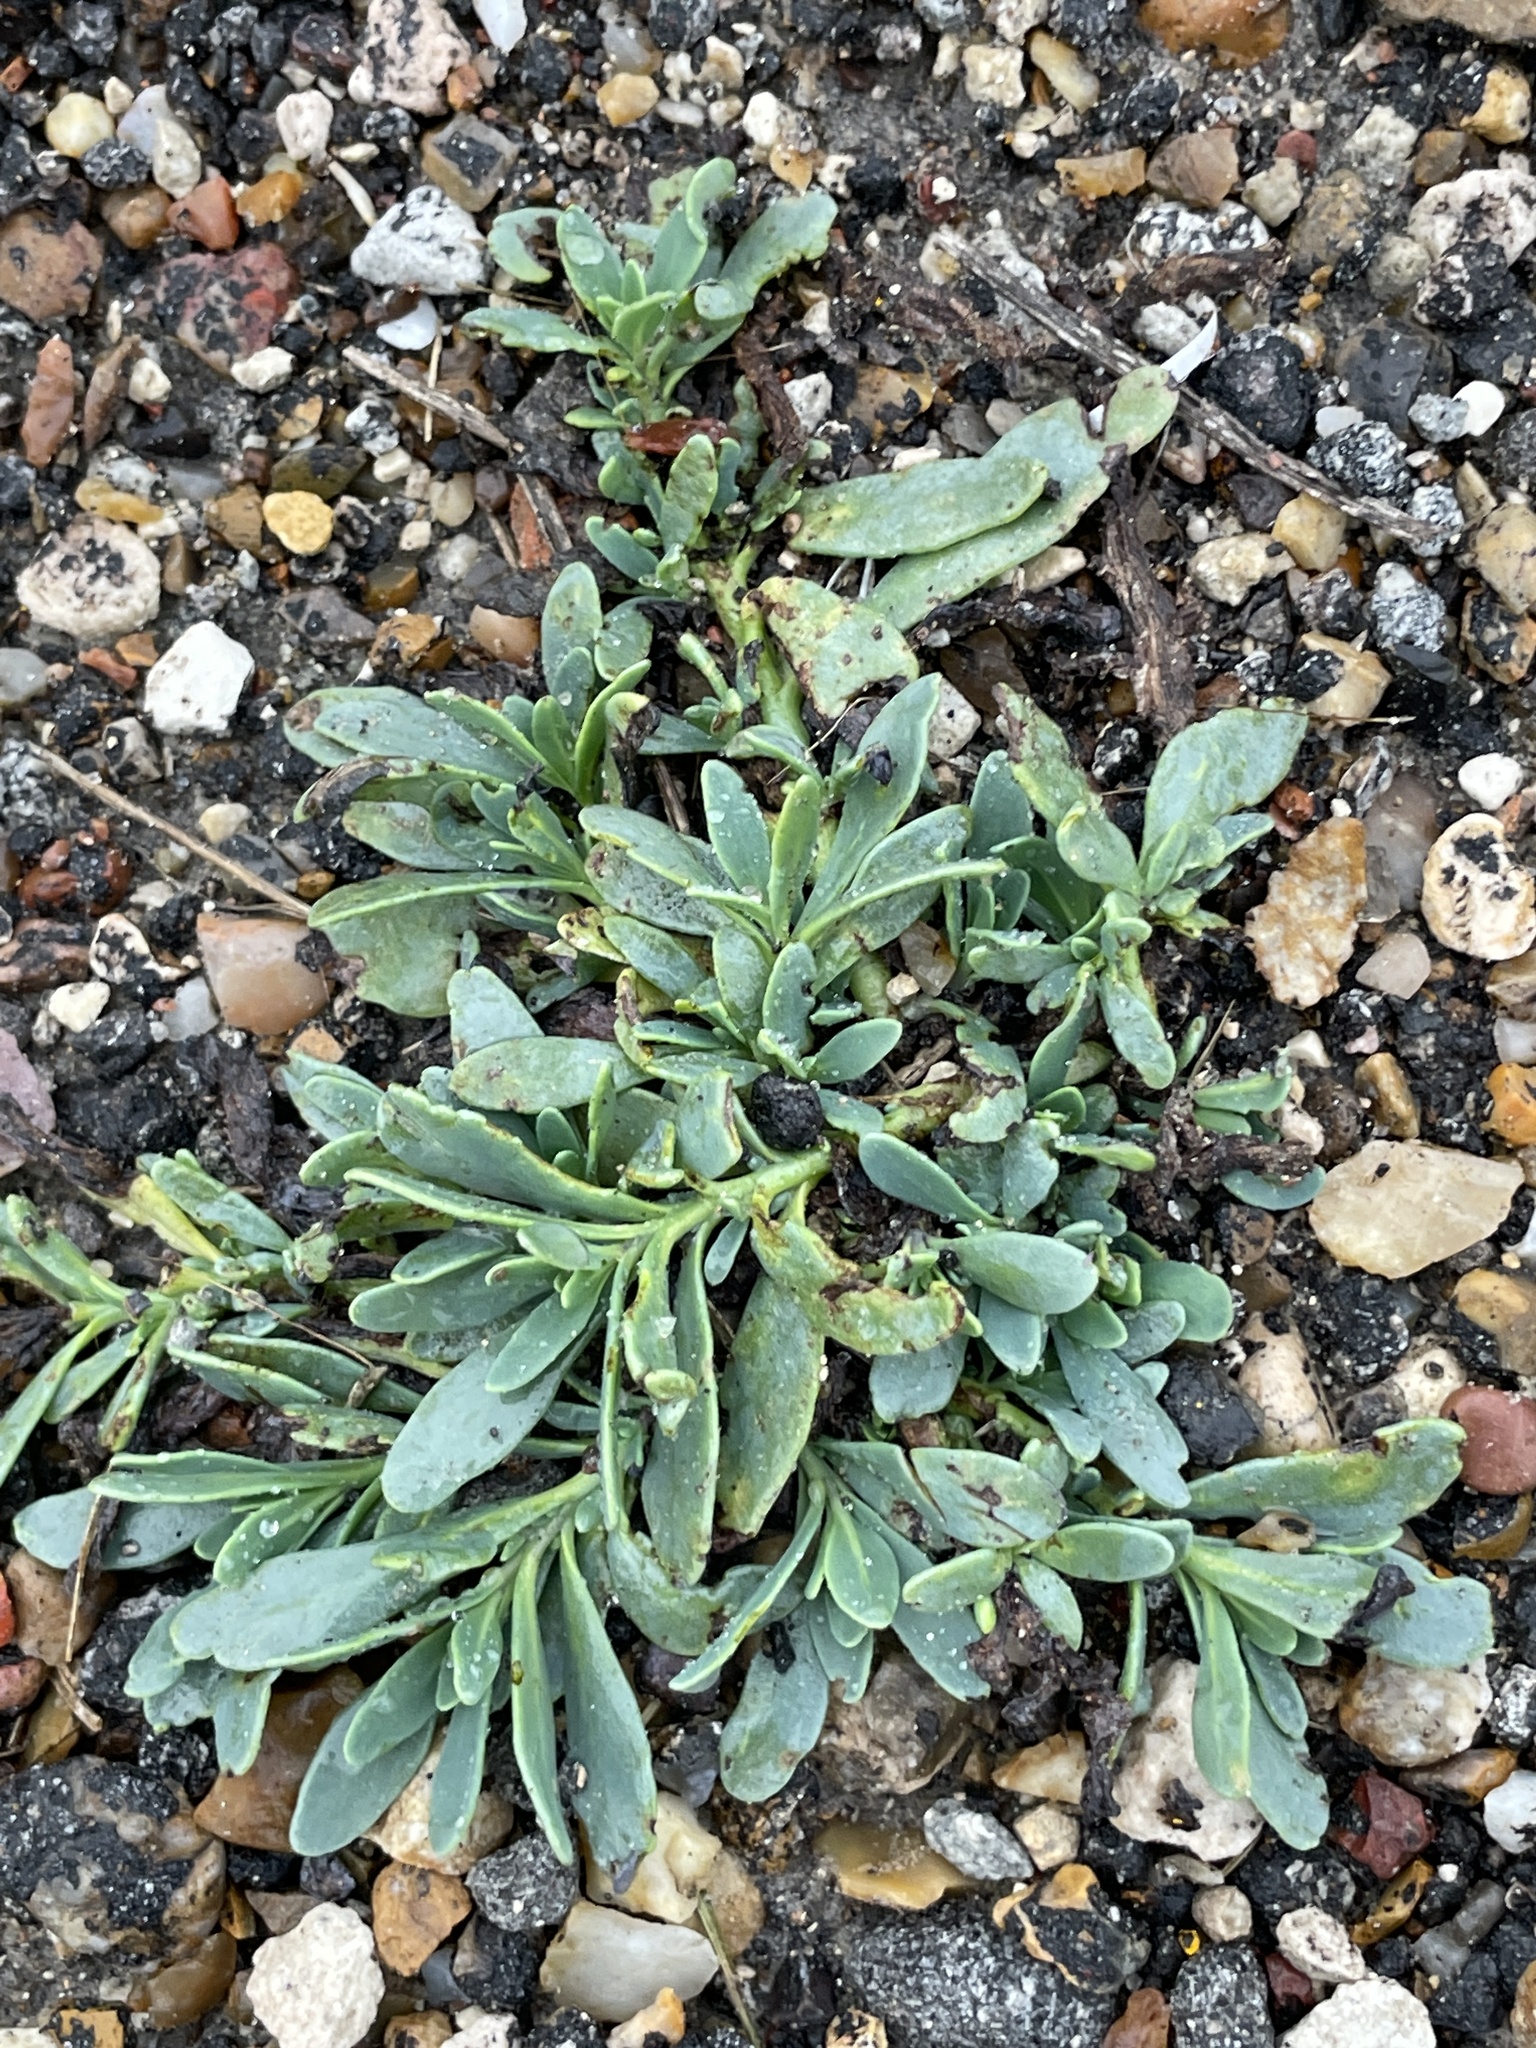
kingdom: Plantae
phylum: Tracheophyta
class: Magnoliopsida
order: Boraginales
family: Heliotropiaceae
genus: Heliotropium
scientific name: Heliotropium curassavicum
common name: Seaside heliotrope
